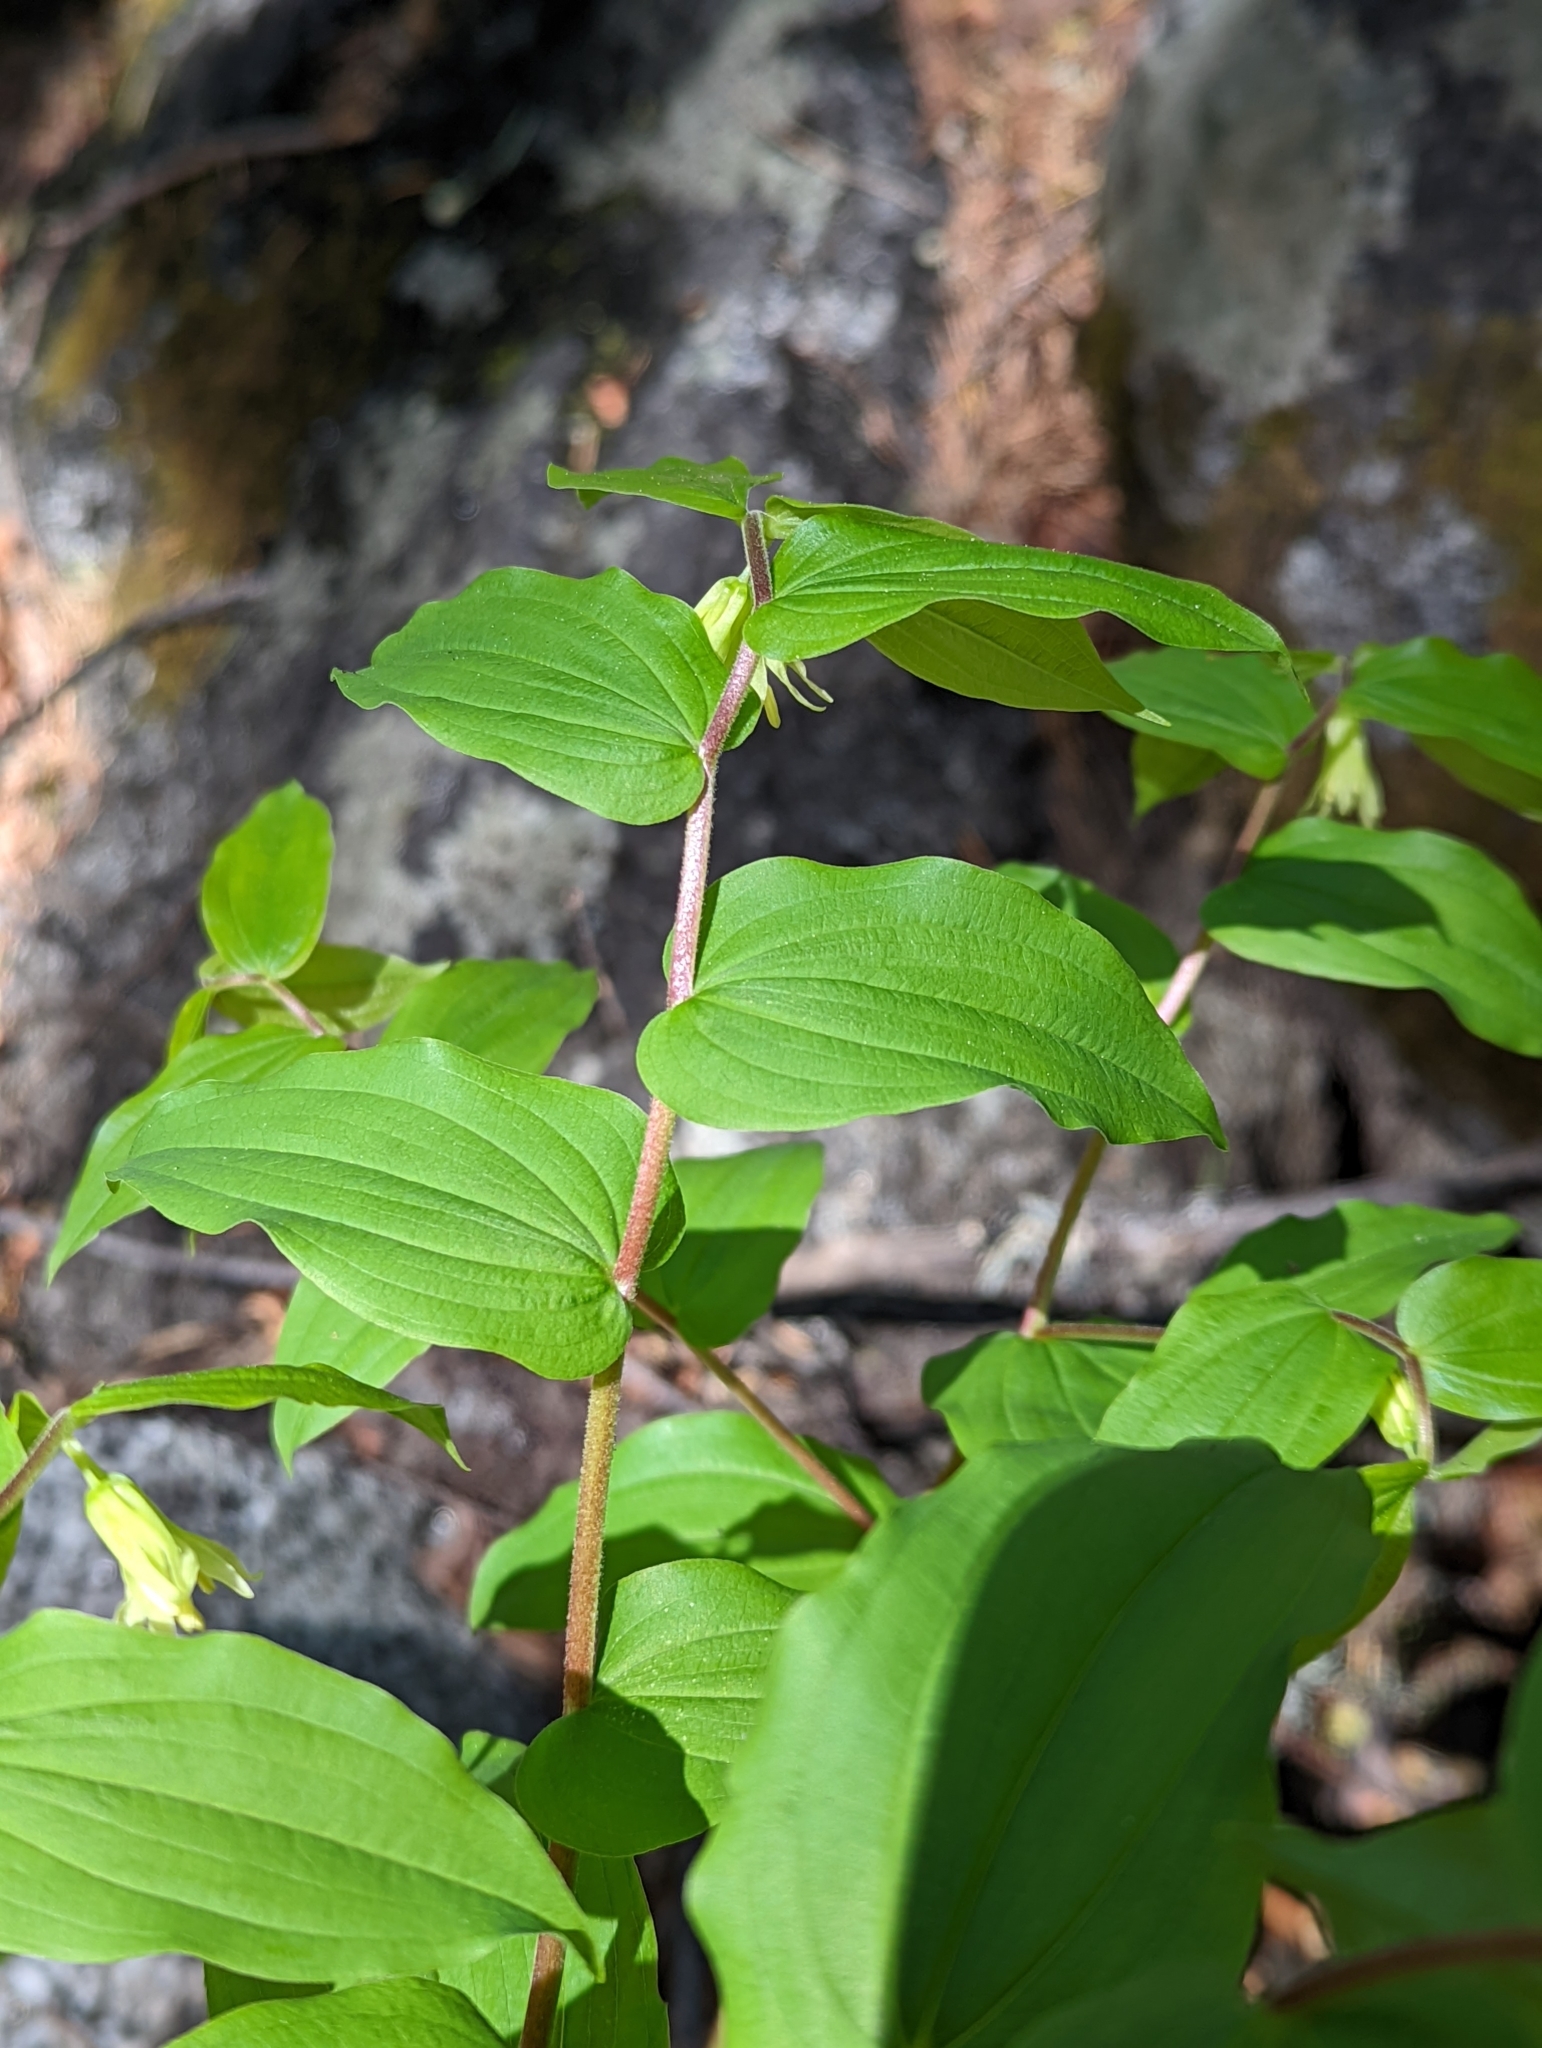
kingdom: Plantae
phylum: Tracheophyta
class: Liliopsida
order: Liliales
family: Liliaceae
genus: Prosartes
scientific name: Prosartes hookeri
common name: Fairy-bells
